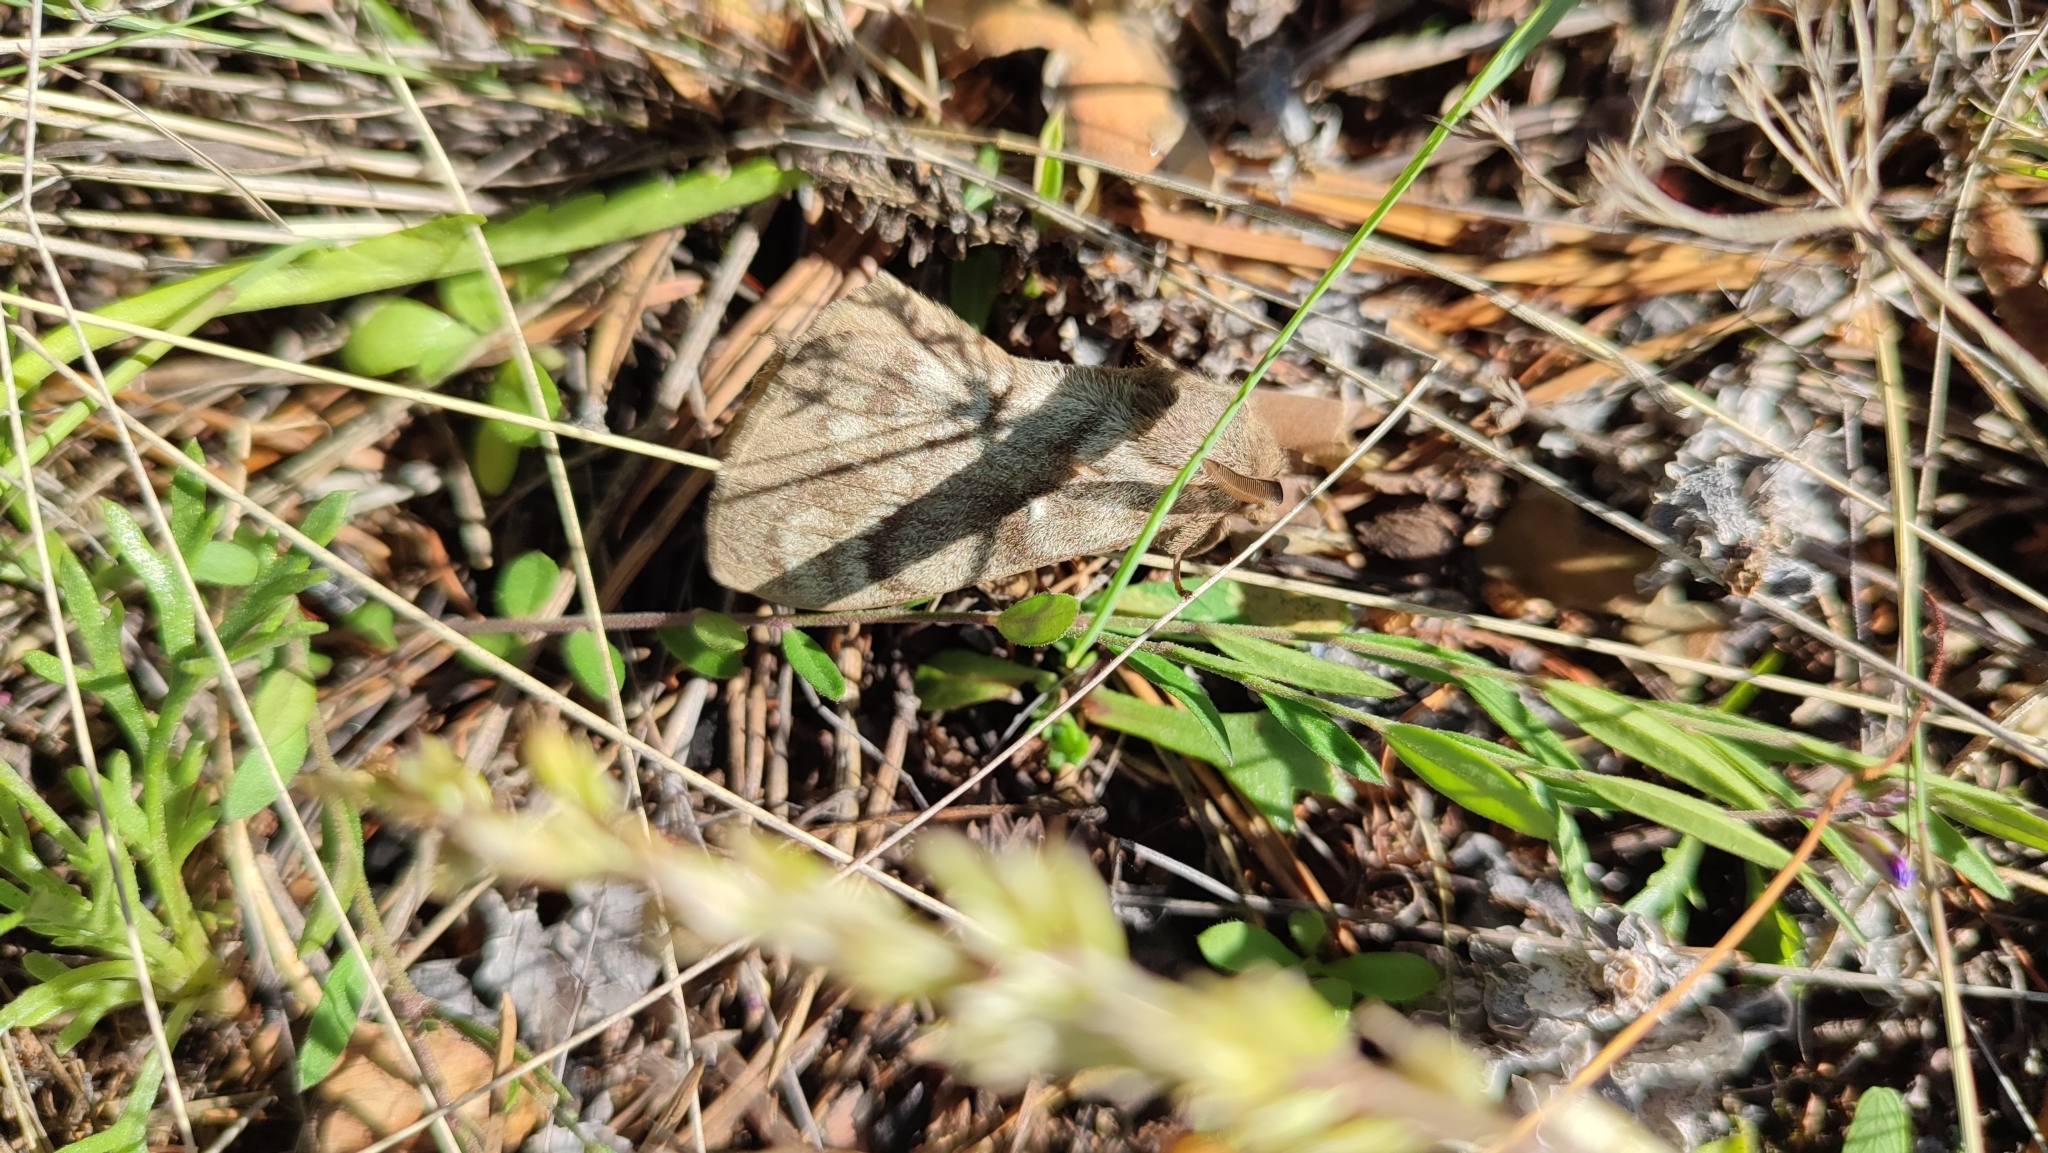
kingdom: Animalia
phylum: Arthropoda
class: Insecta
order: Lepidoptera
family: Lasiocampidae
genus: Dendrolimus
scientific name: Dendrolimus superans
